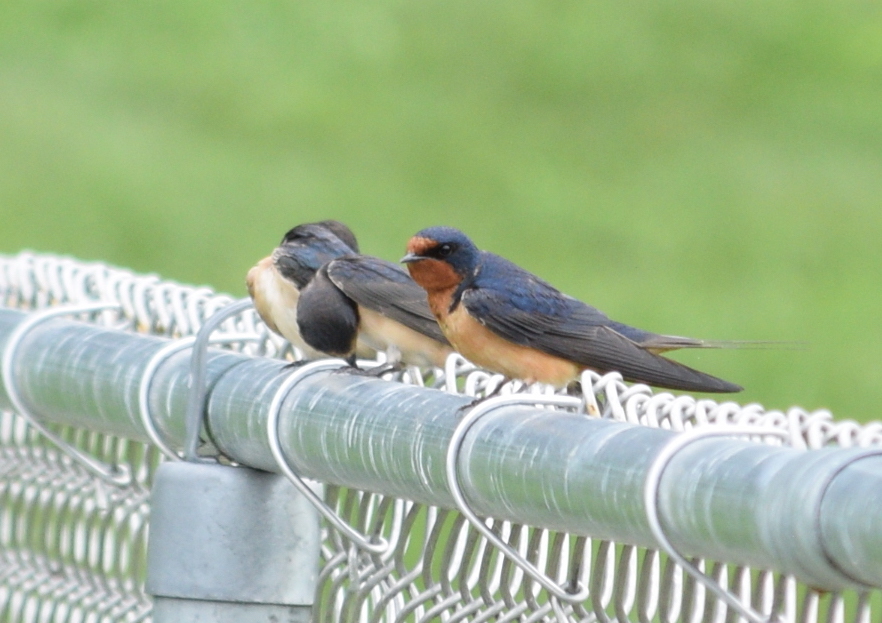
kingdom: Animalia
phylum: Chordata
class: Aves
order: Passeriformes
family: Hirundinidae
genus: Hirundo
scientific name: Hirundo rustica
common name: Barn swallow
